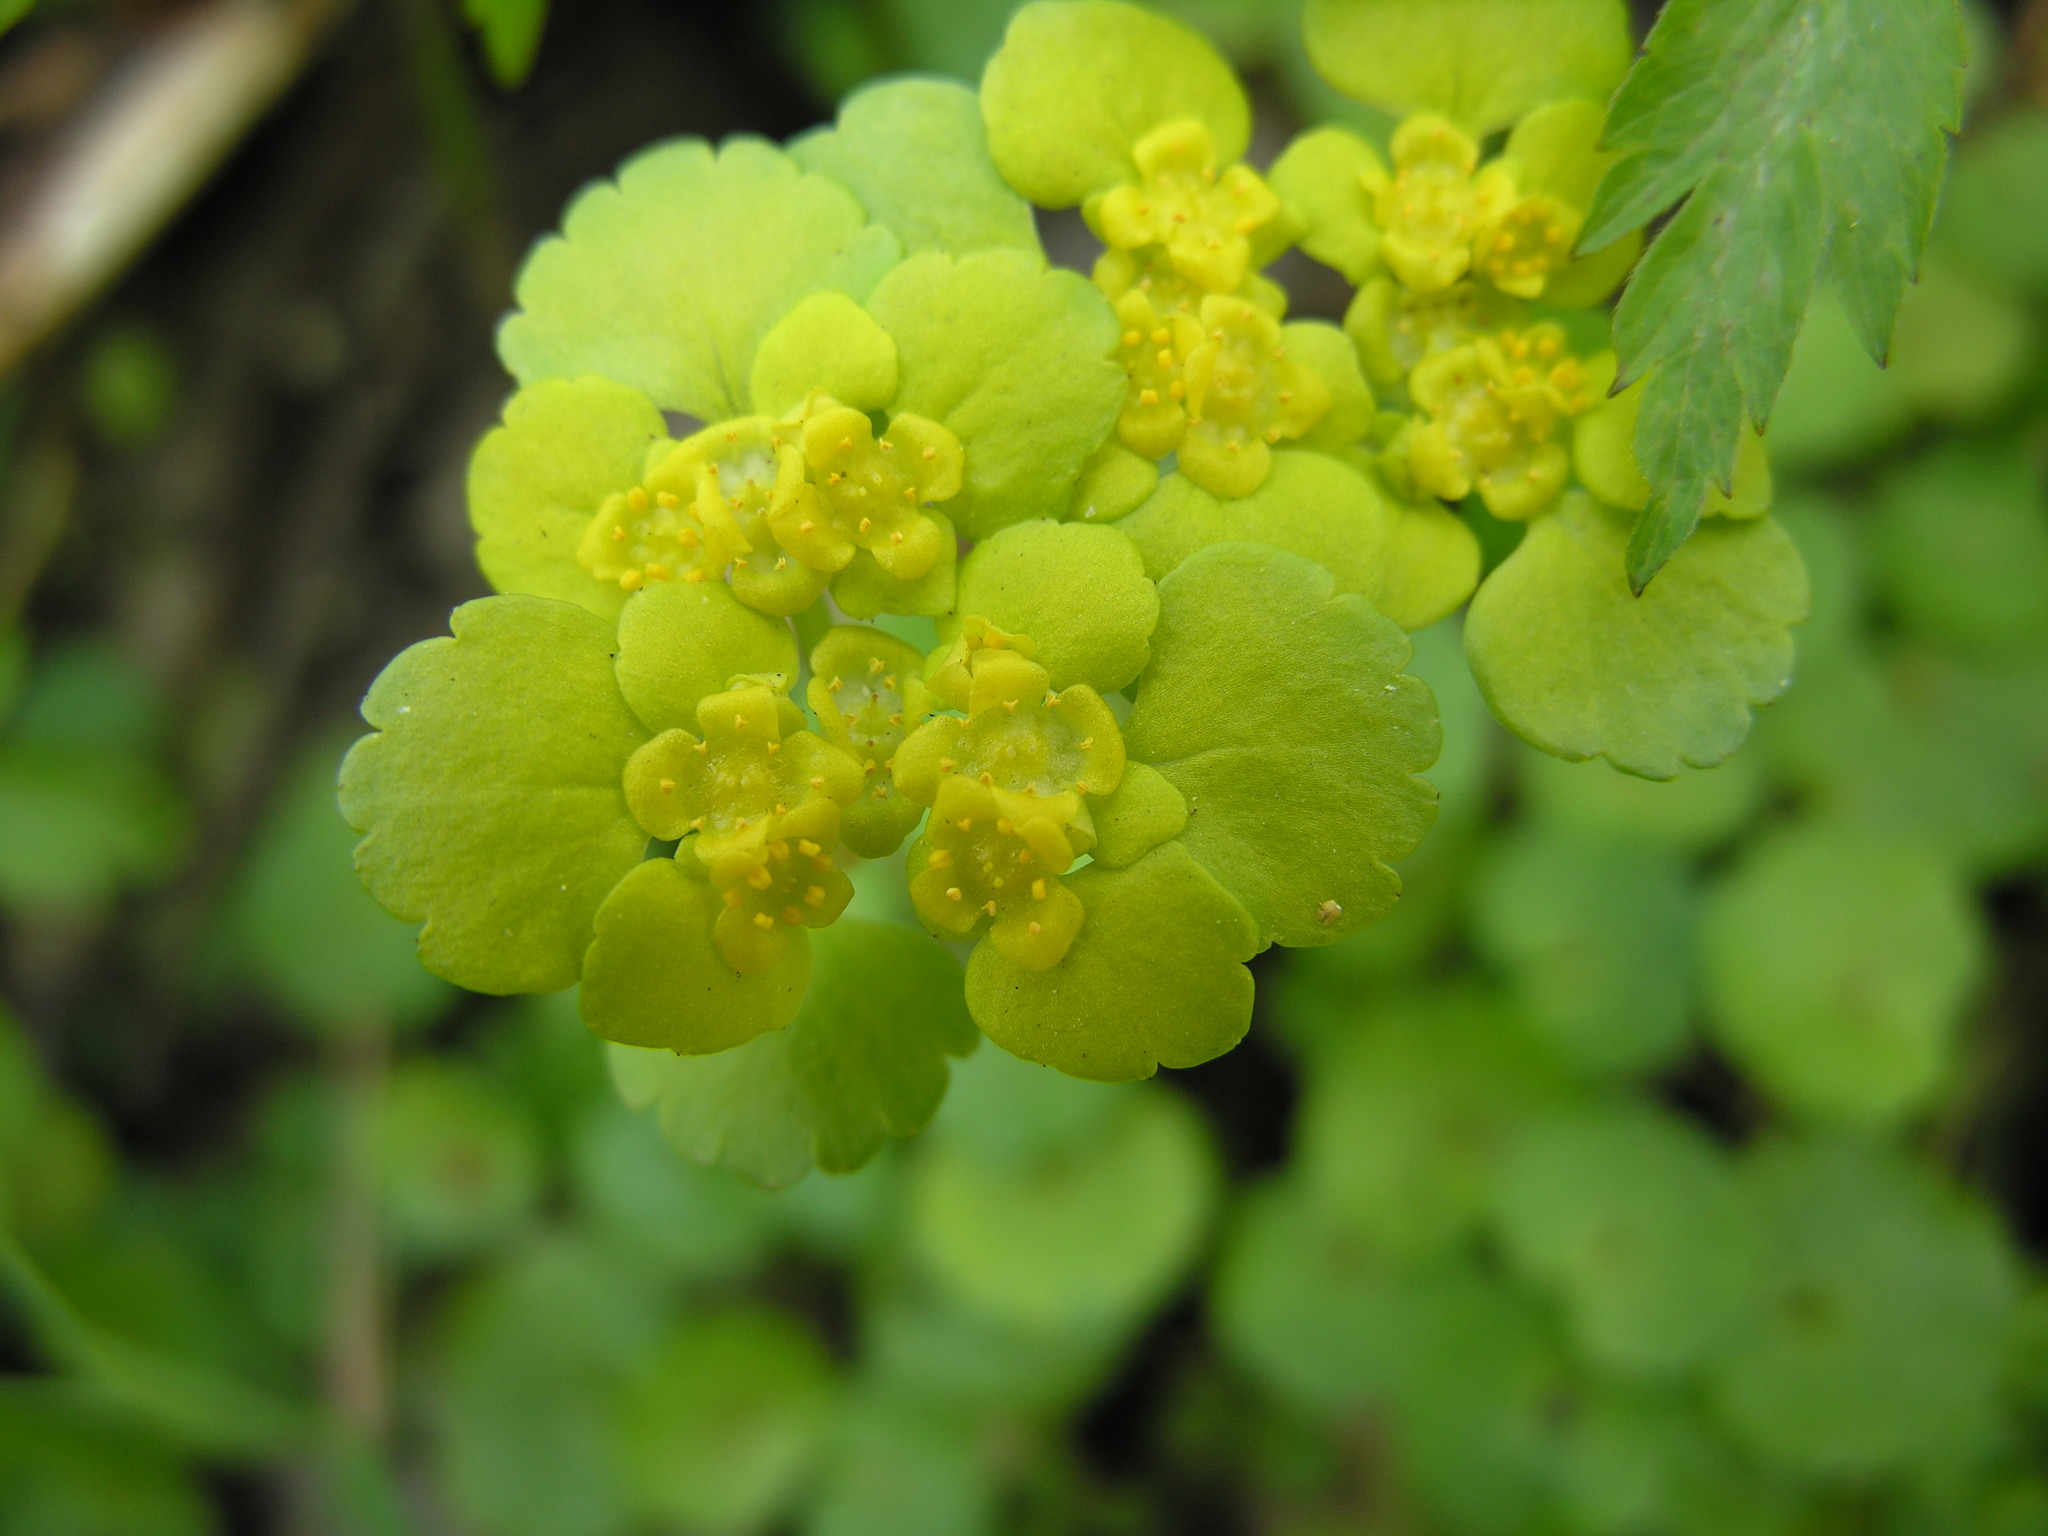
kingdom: Plantae
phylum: Tracheophyta
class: Magnoliopsida
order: Saxifragales
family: Saxifragaceae
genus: Chrysosplenium
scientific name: Chrysosplenium alternifolium
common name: Alternate-leaved golden-saxifrage
